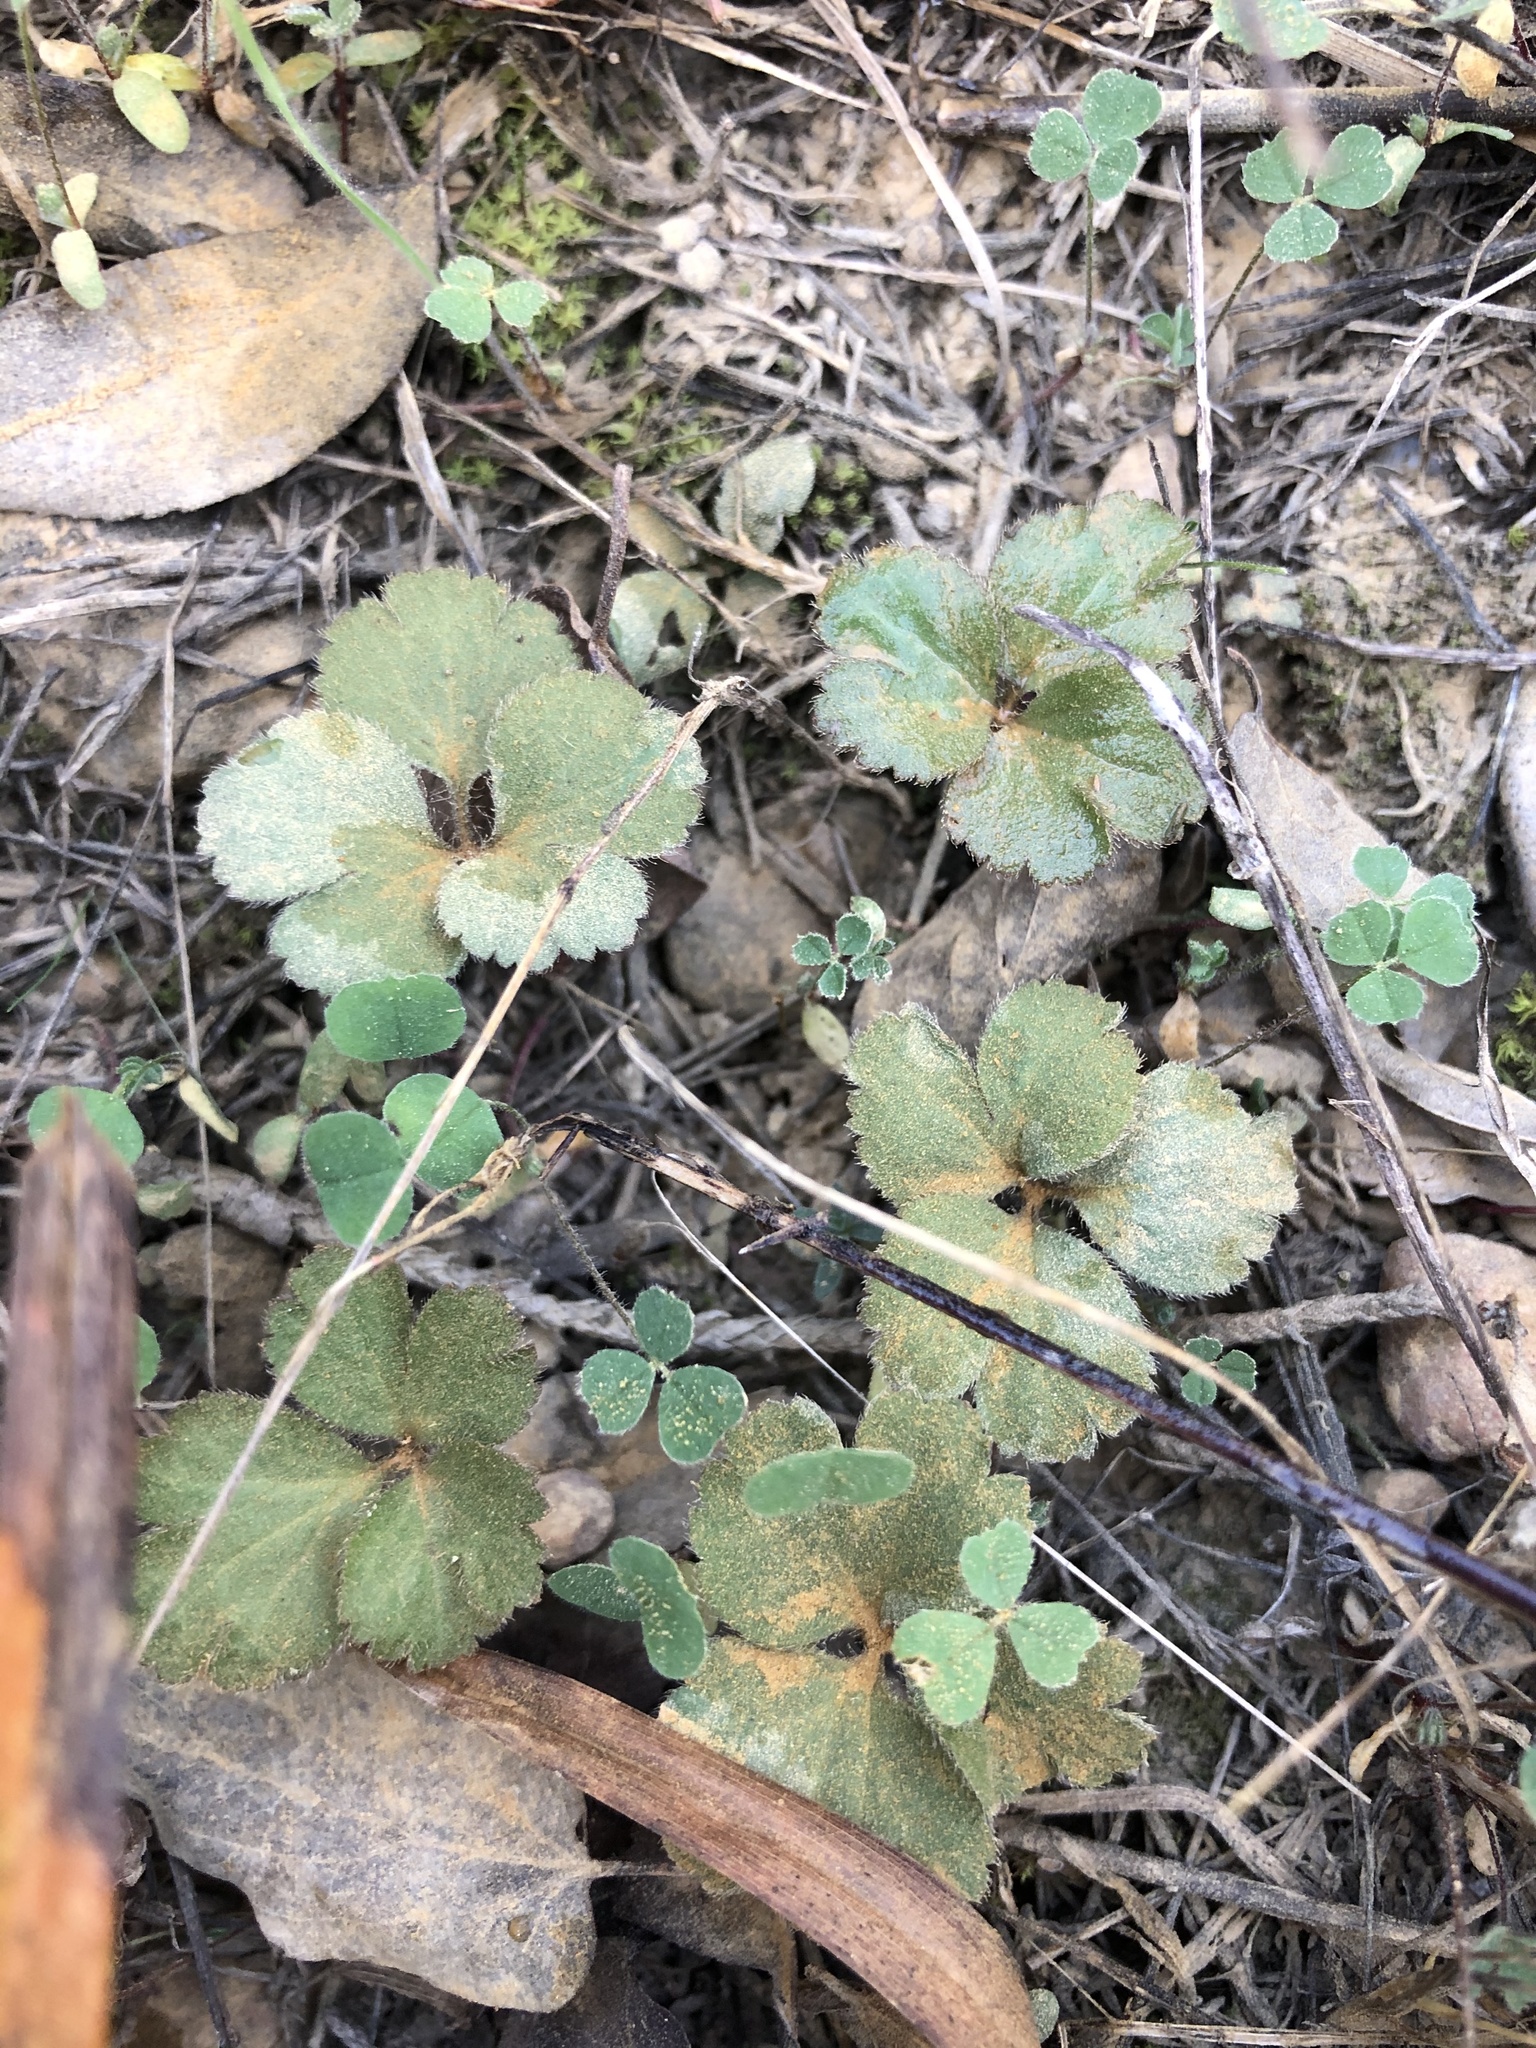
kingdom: Plantae
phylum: Tracheophyta
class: Magnoliopsida
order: Ranunculales
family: Ranunculaceae
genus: Anemone
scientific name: Anemone berlandieri
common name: Ten-petal anemone
